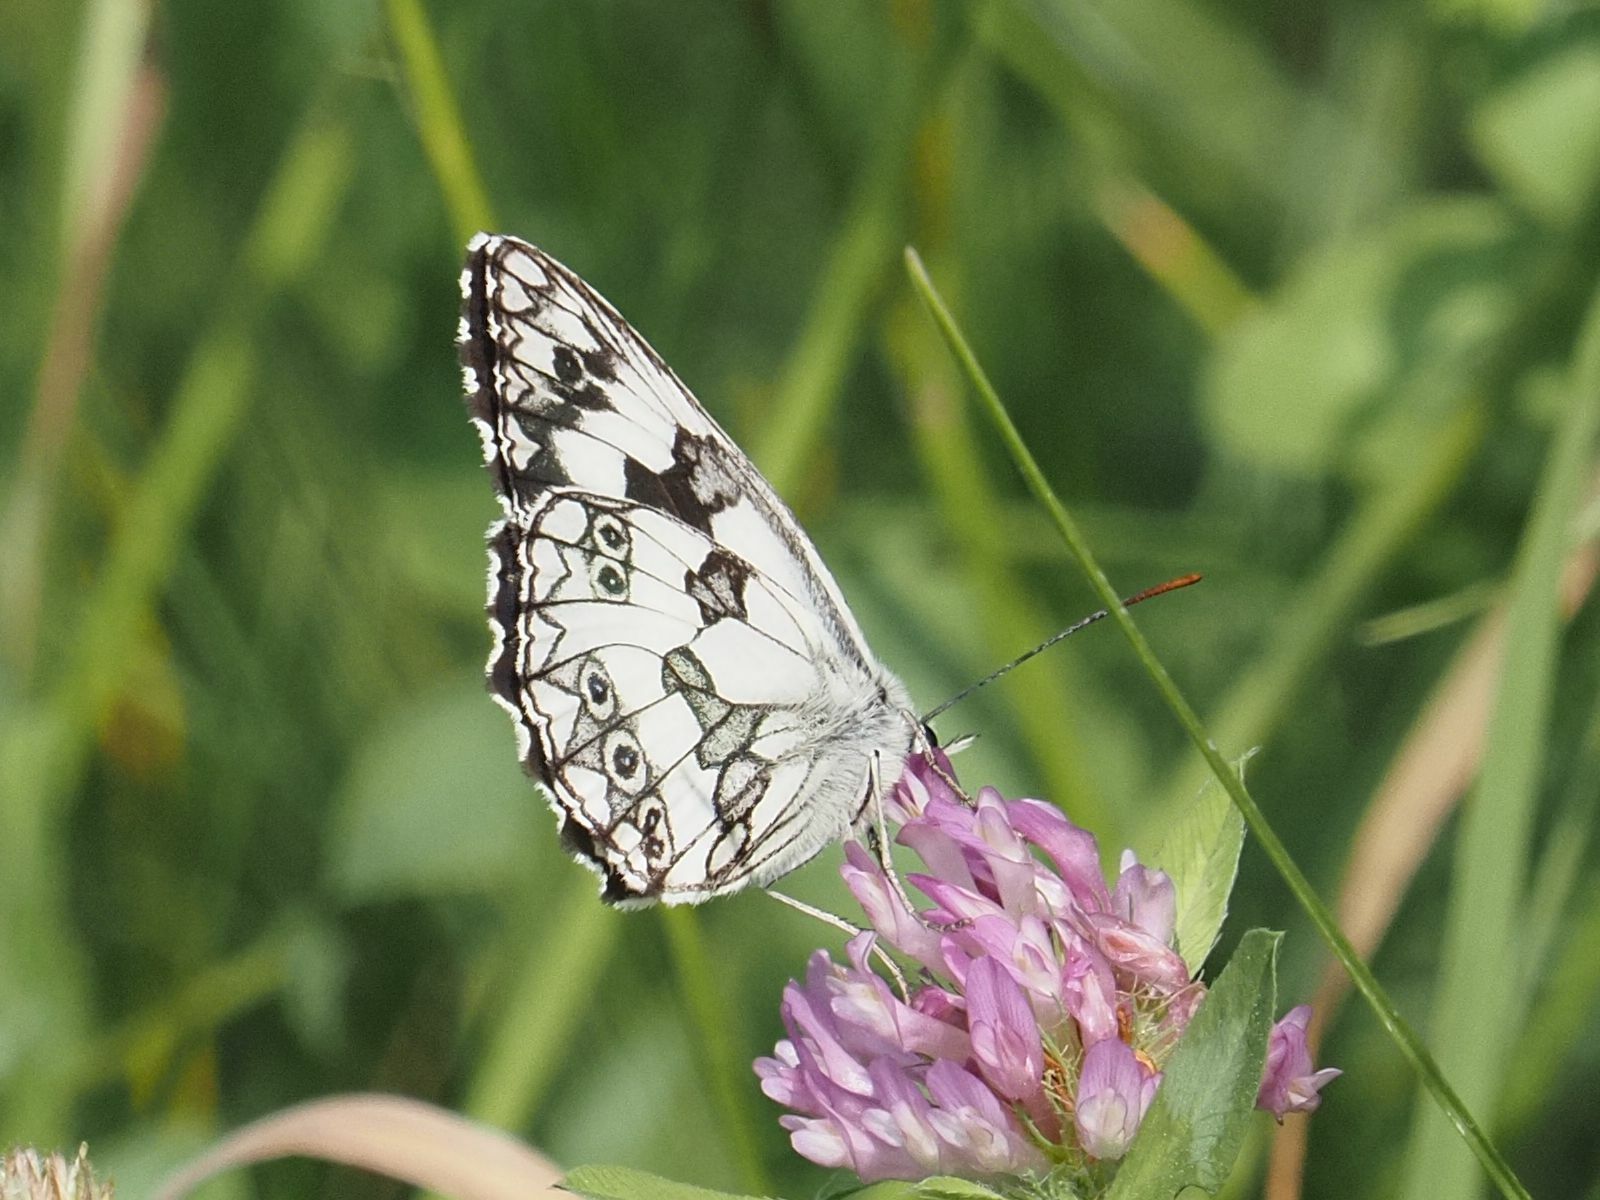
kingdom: Animalia
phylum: Arthropoda
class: Insecta
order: Lepidoptera
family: Nymphalidae
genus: Melanargia
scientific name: Melanargia galathea
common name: Marbled white
